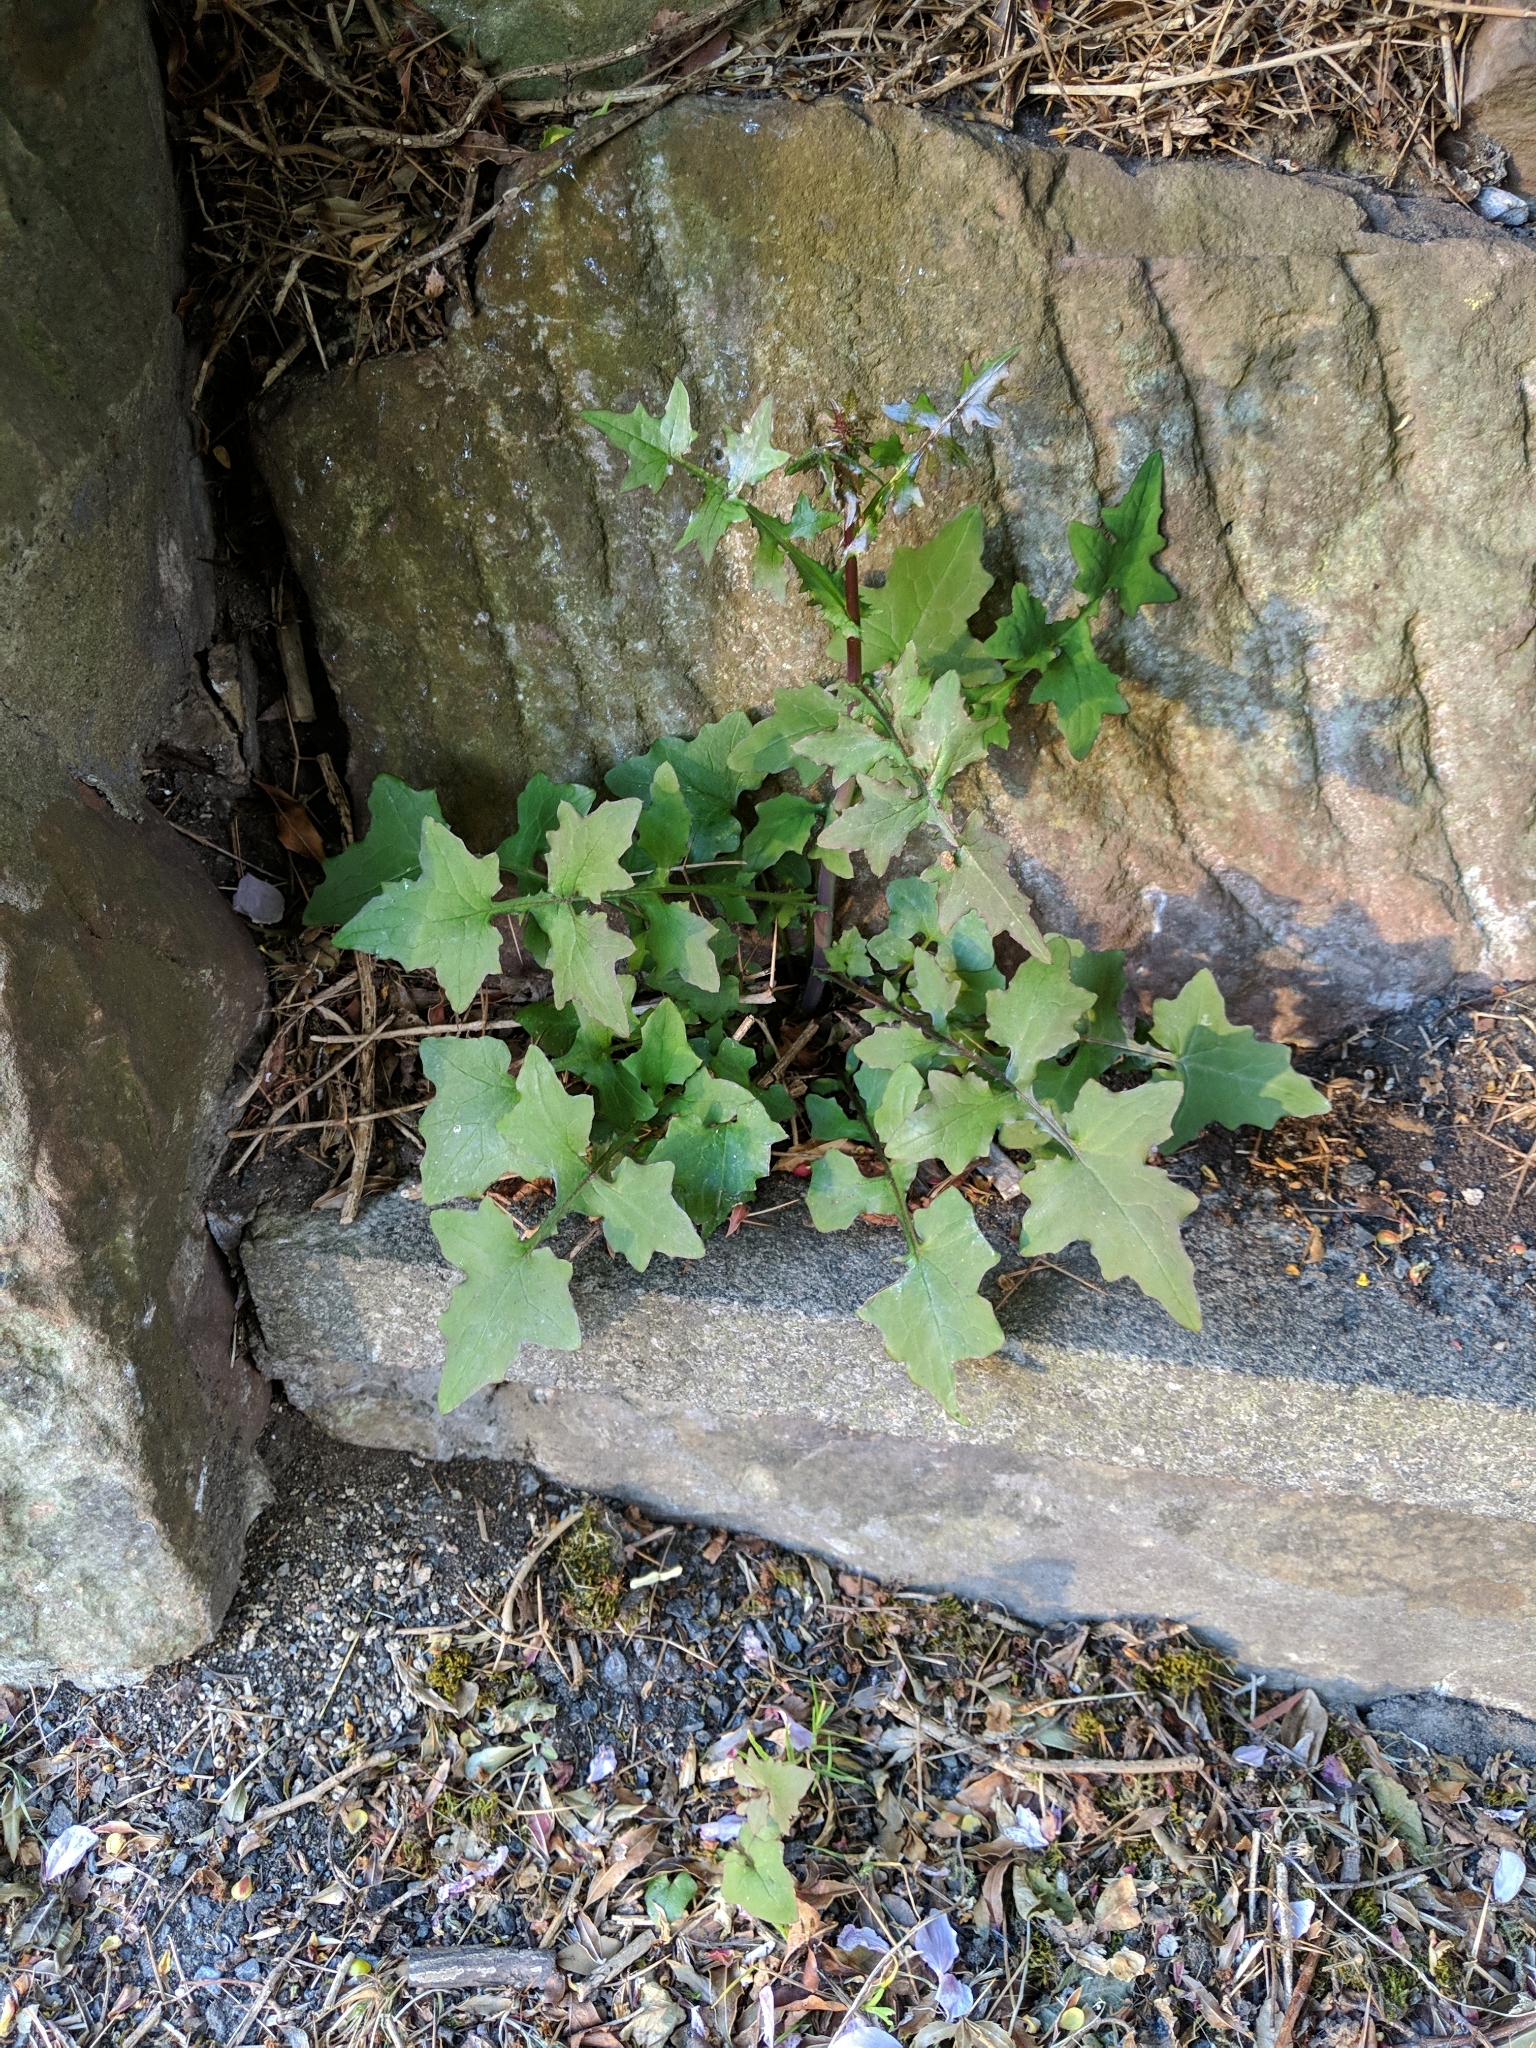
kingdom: Plantae
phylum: Tracheophyta
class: Magnoliopsida
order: Asterales
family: Asteraceae
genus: Mycelis
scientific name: Mycelis muralis
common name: Wall lettuce
